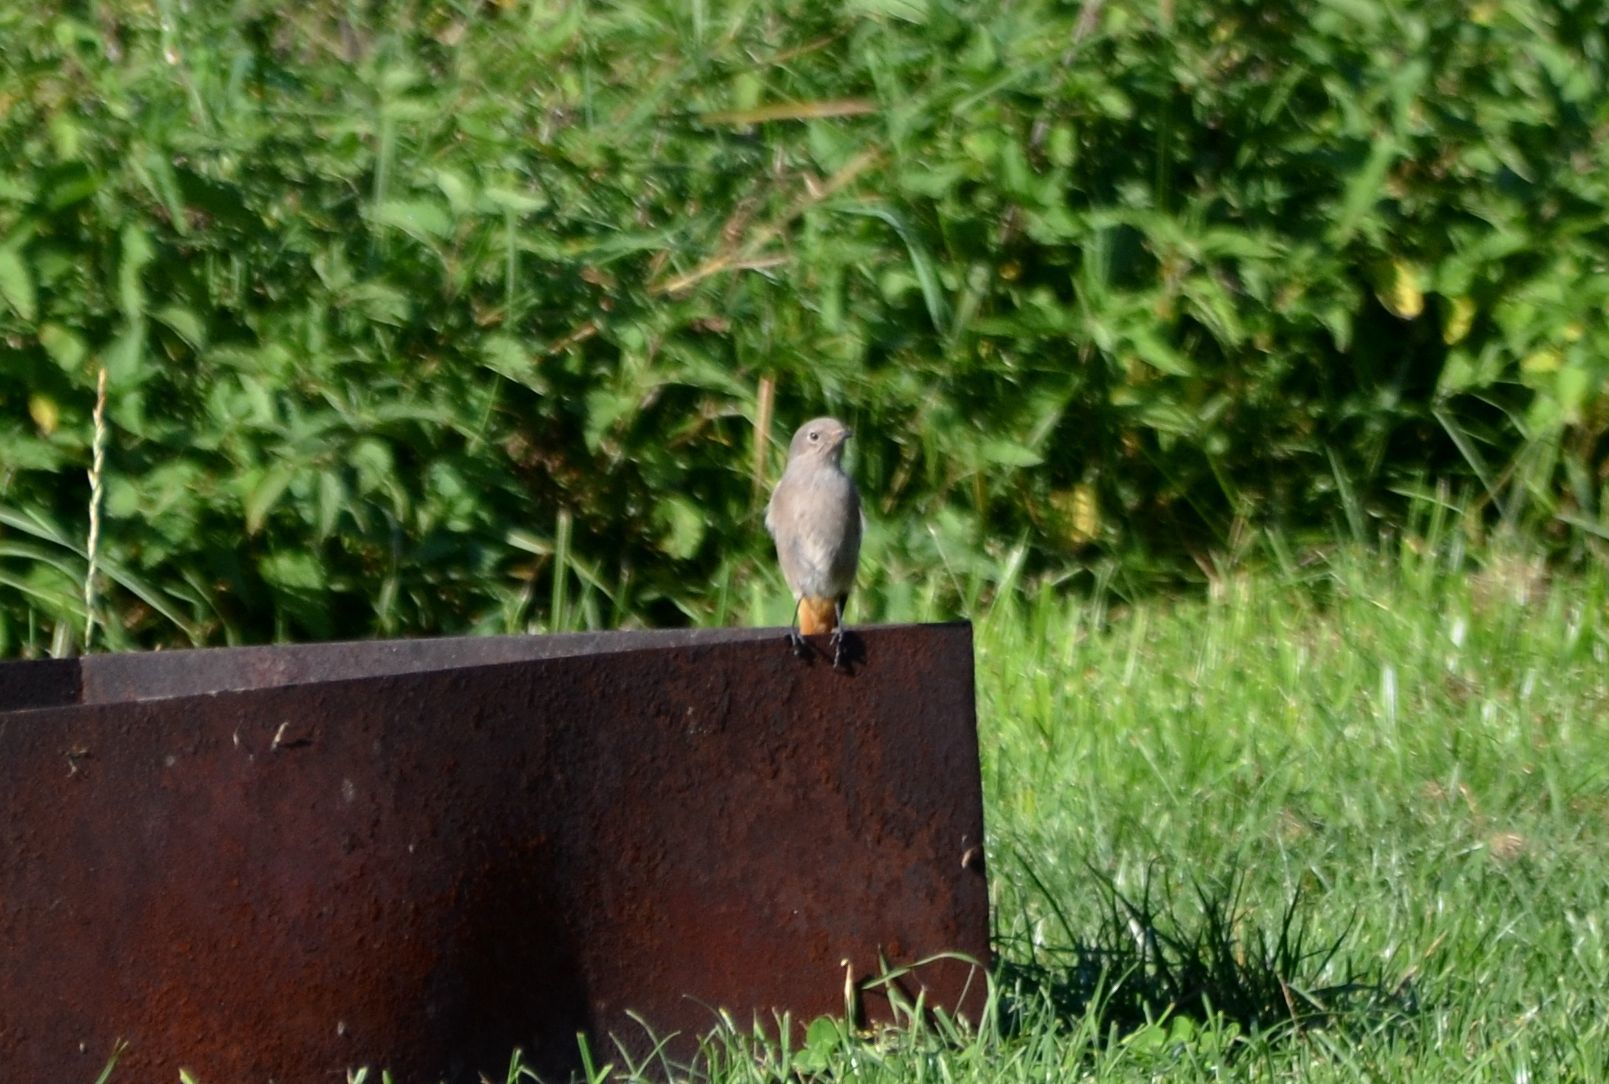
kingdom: Animalia
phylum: Chordata
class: Aves
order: Passeriformes
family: Muscicapidae
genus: Phoenicurus
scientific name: Phoenicurus ochruros
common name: Black redstart
